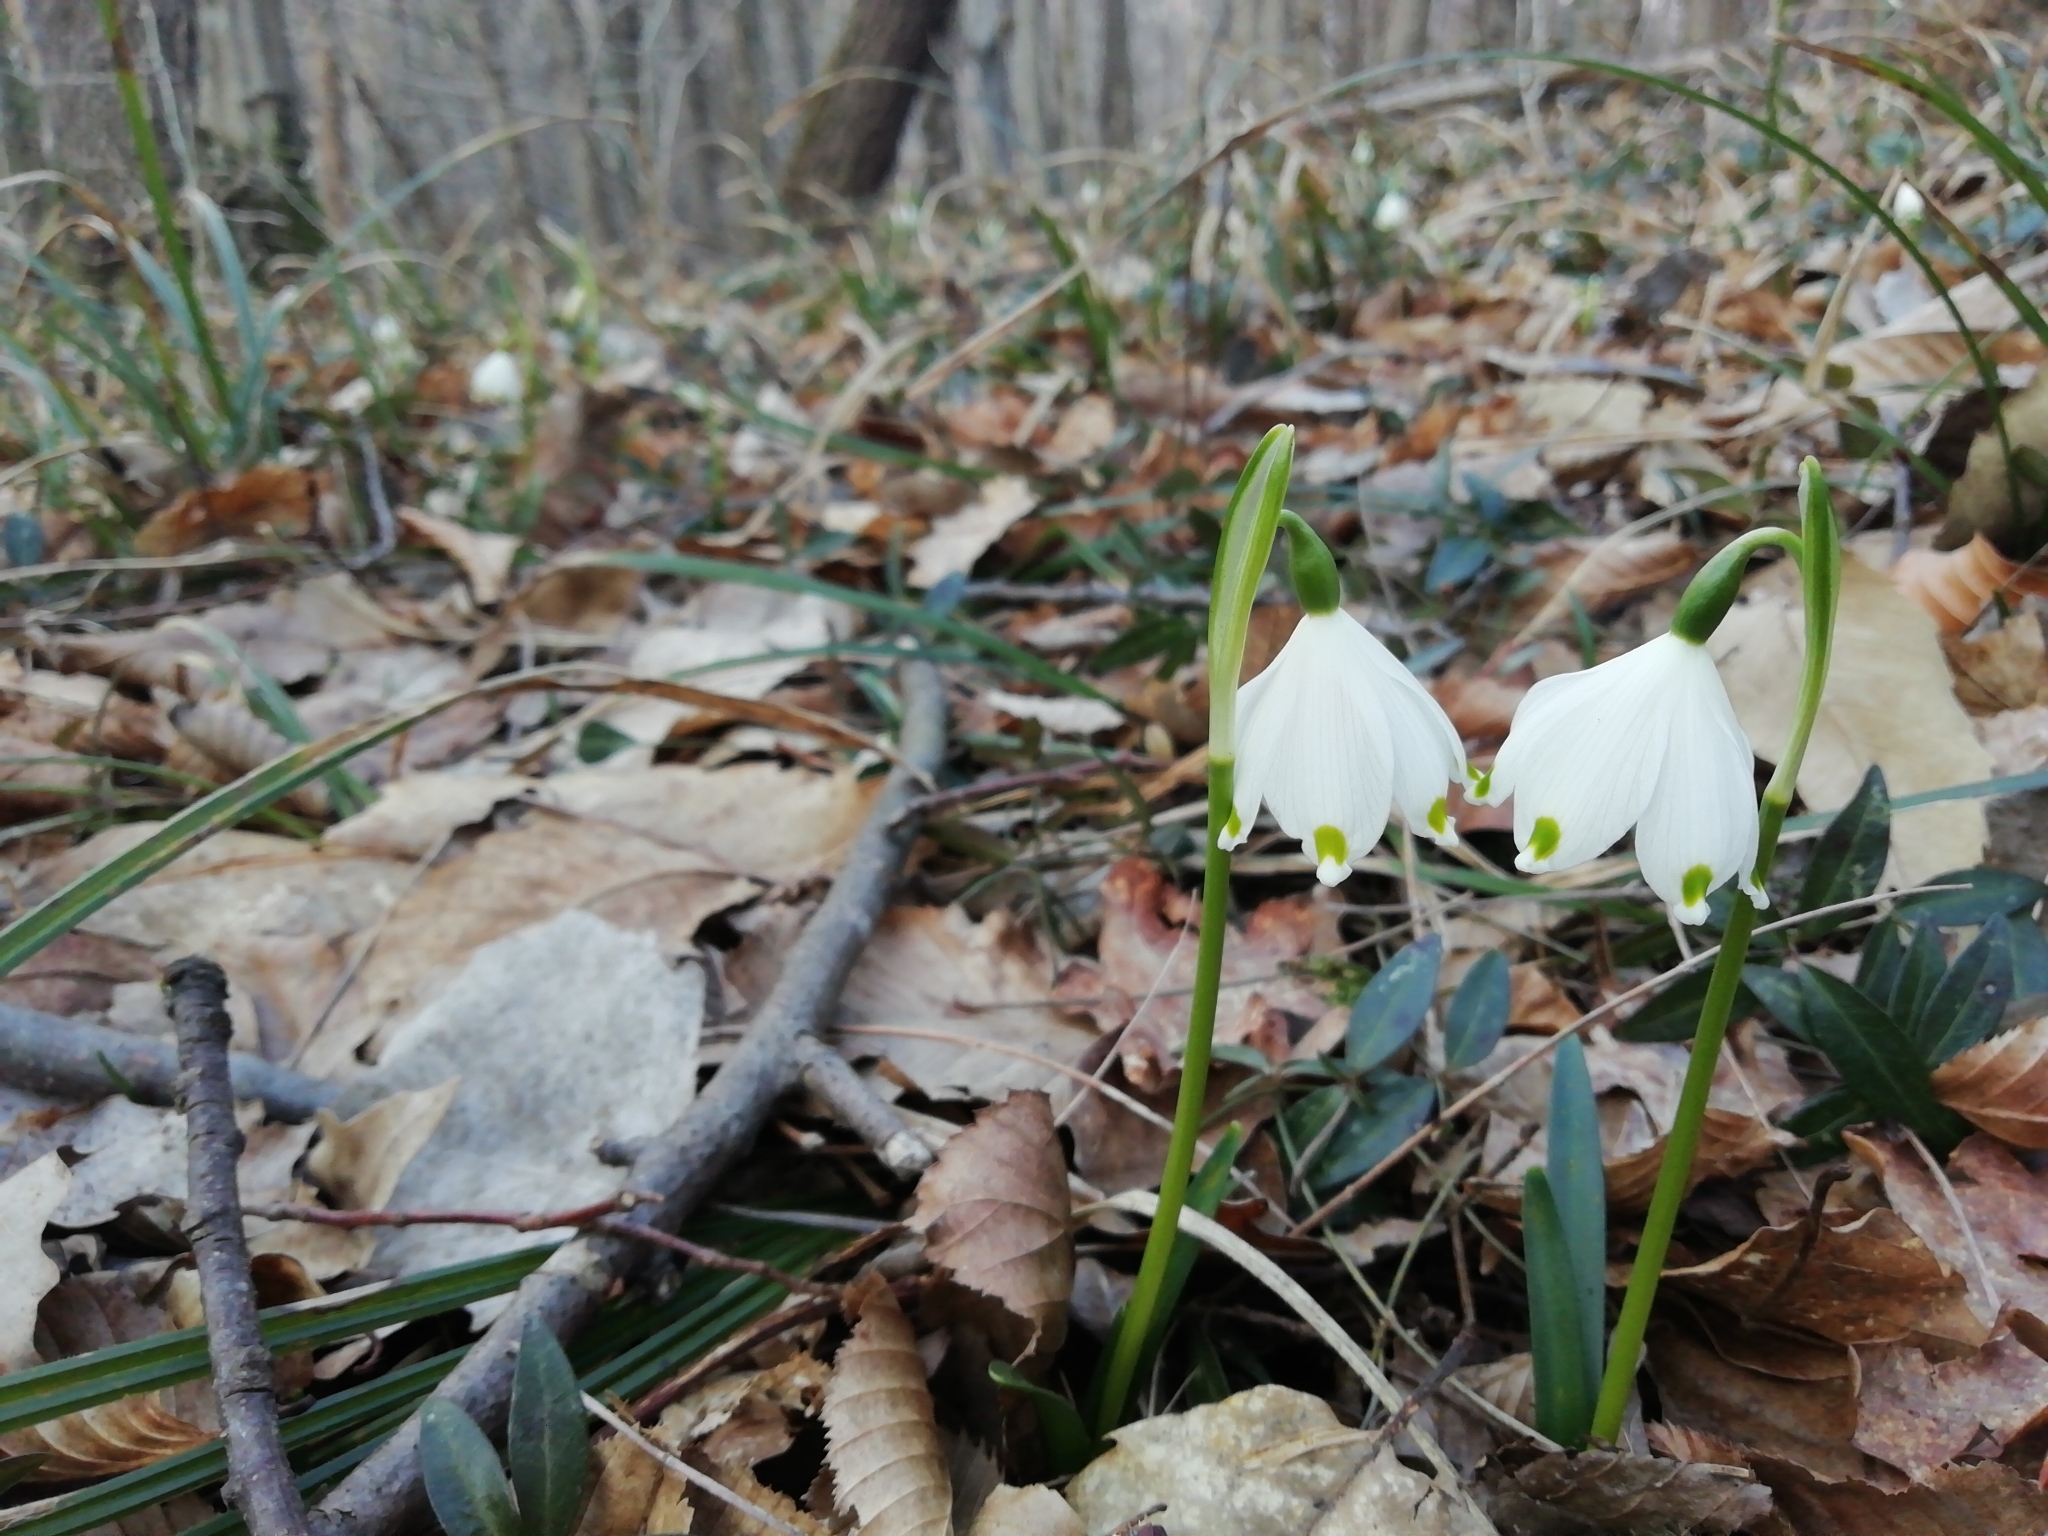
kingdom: Plantae
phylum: Tracheophyta
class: Liliopsida
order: Asparagales
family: Amaryllidaceae
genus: Leucojum
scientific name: Leucojum vernum
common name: Spring snowflake
